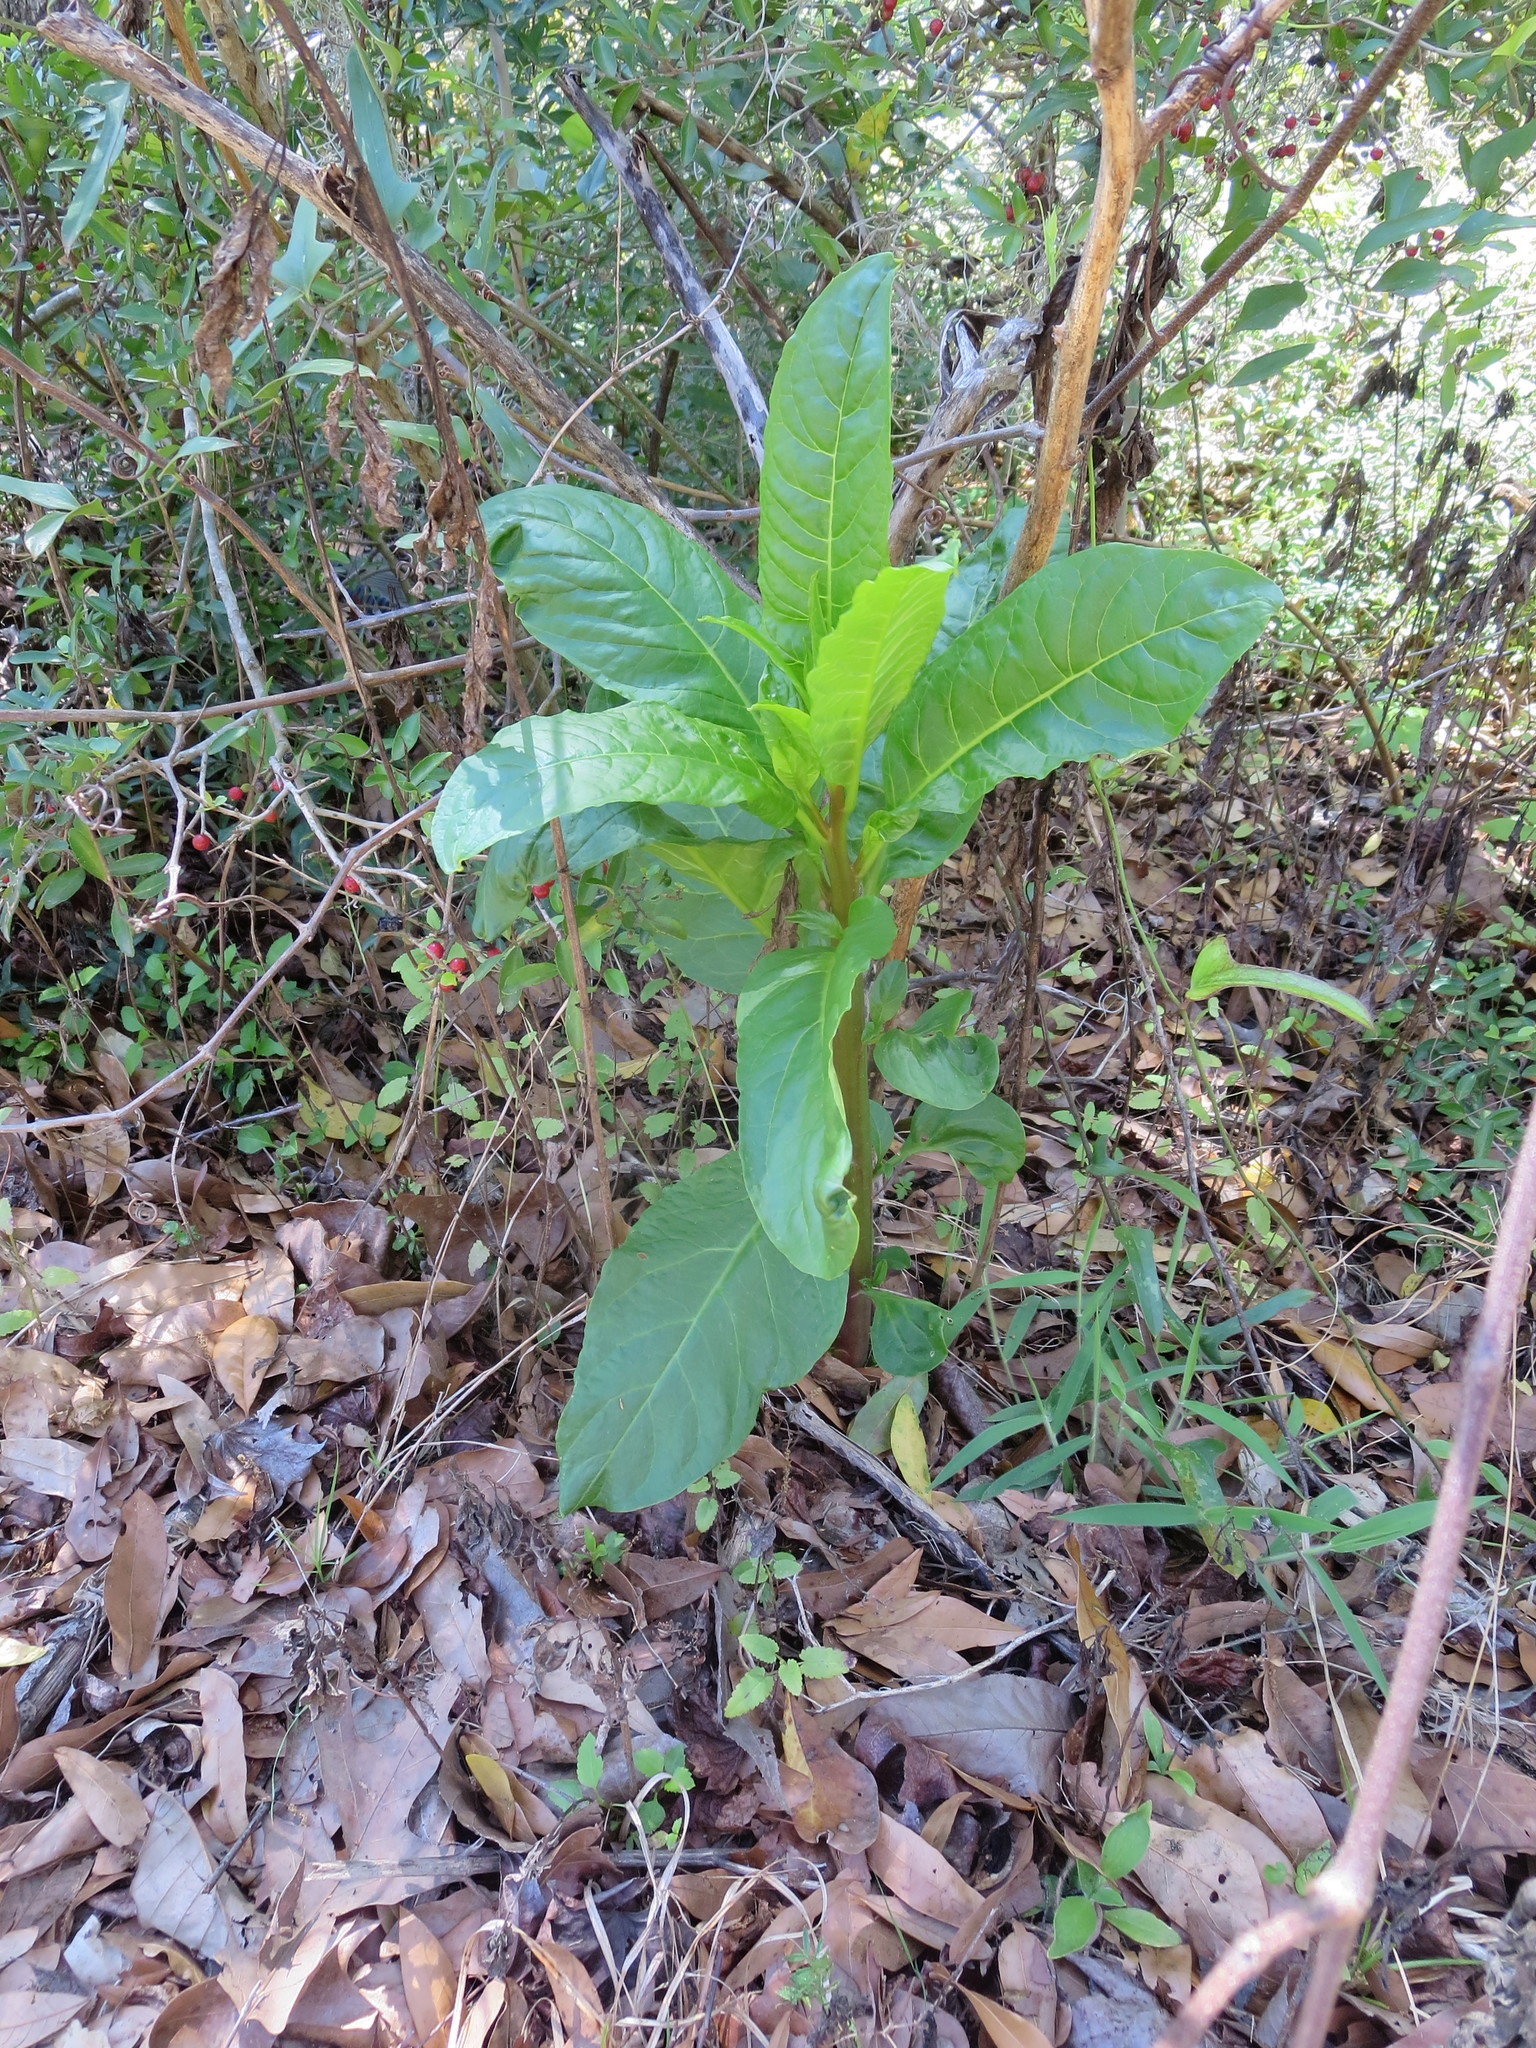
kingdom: Plantae
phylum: Tracheophyta
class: Magnoliopsida
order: Caryophyllales
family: Phytolaccaceae
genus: Phytolacca
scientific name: Phytolacca americana
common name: American pokeweed
